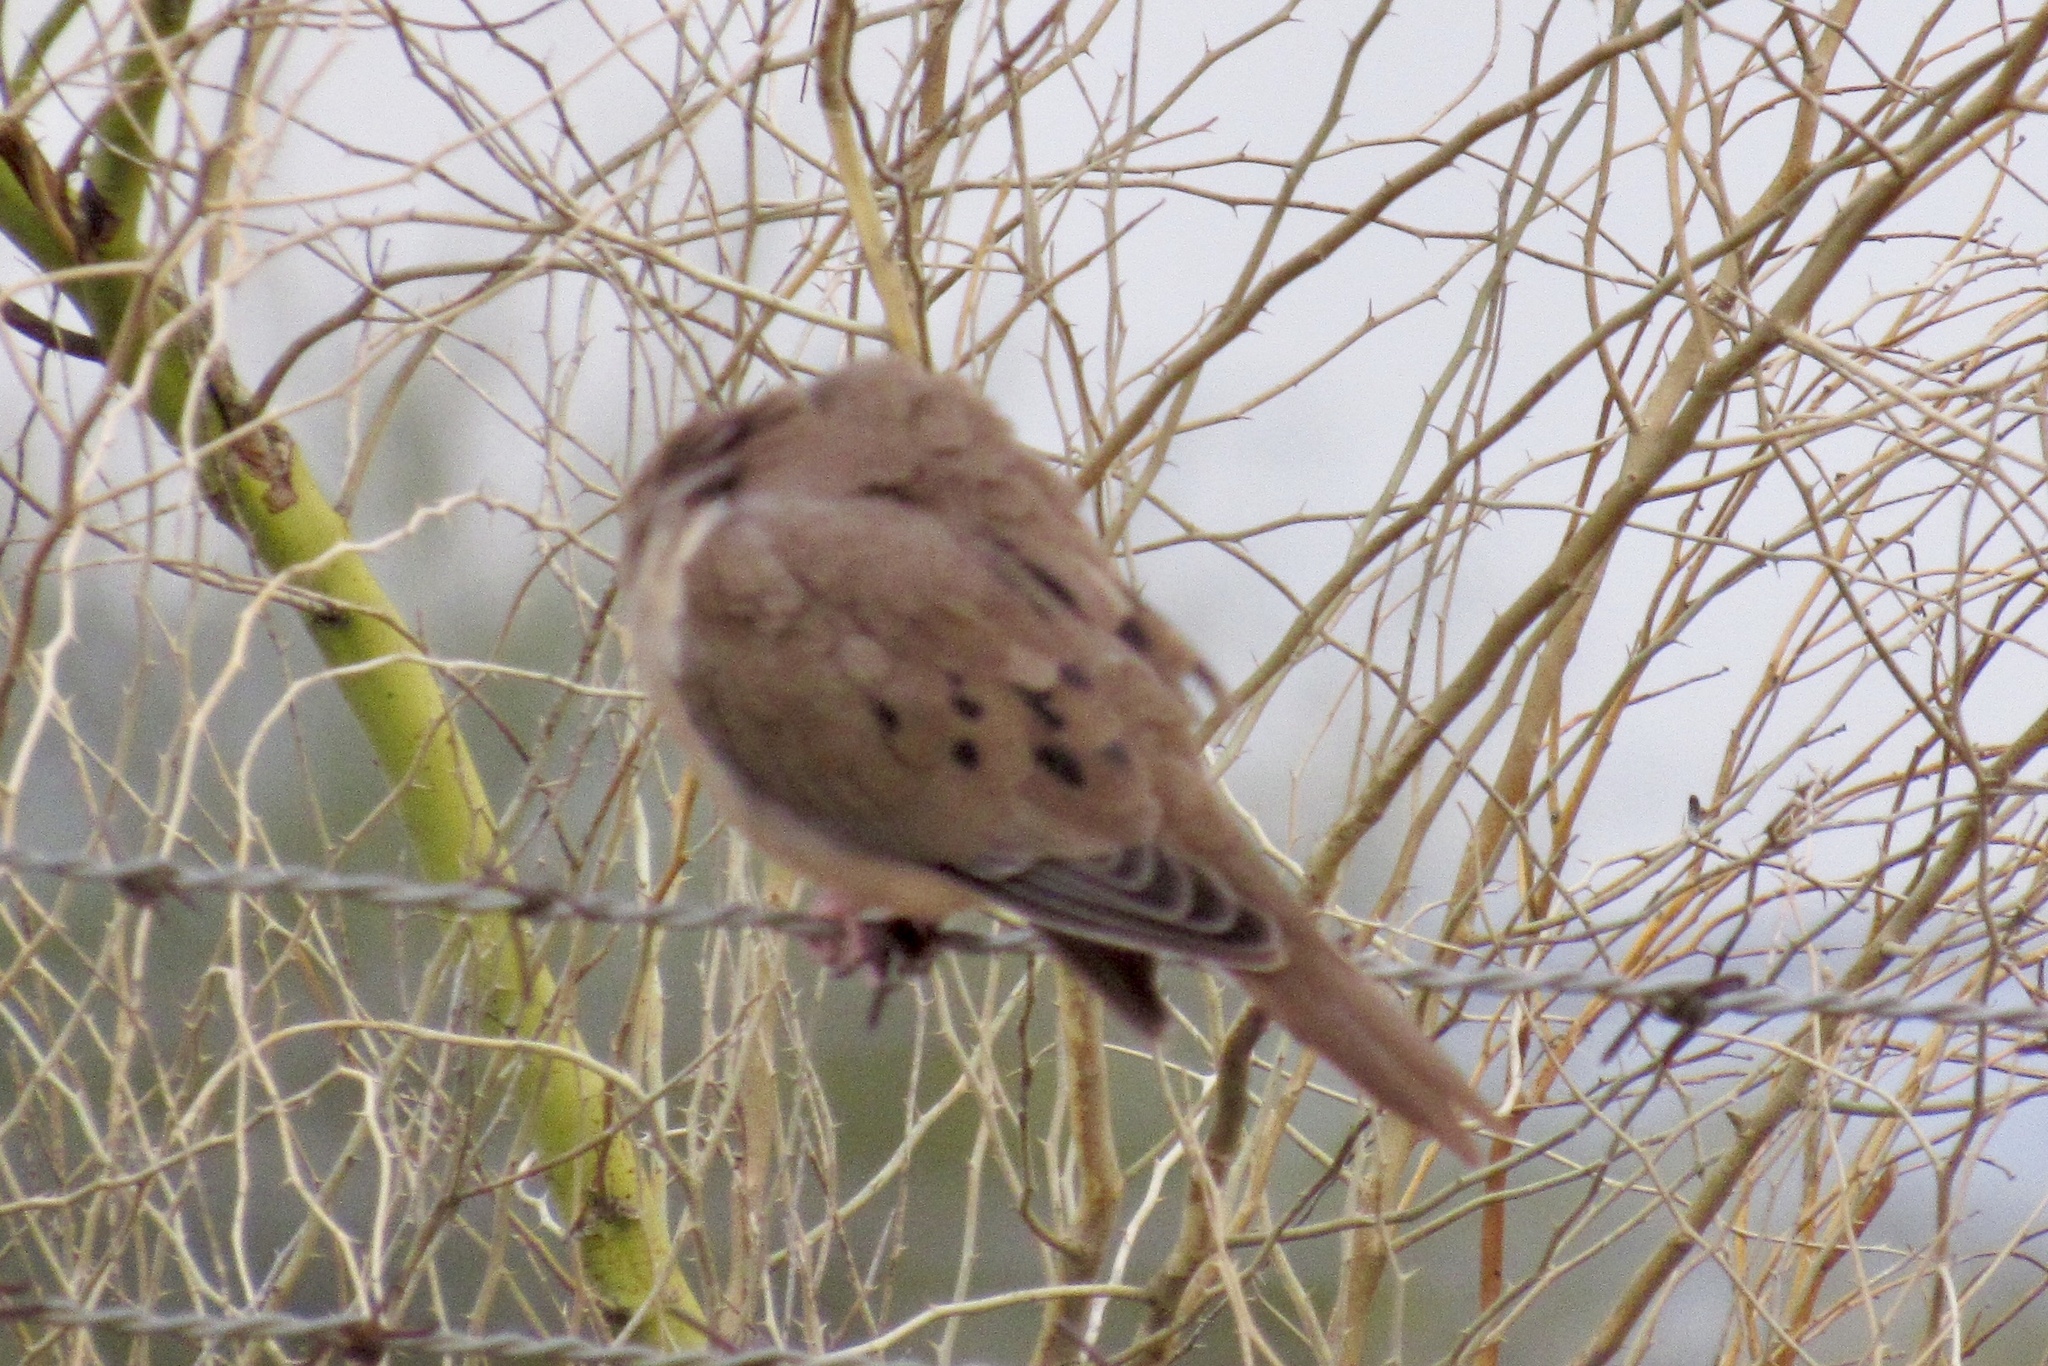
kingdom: Animalia
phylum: Chordata
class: Aves
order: Columbiformes
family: Columbidae
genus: Zenaida
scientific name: Zenaida macroura
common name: Mourning dove
